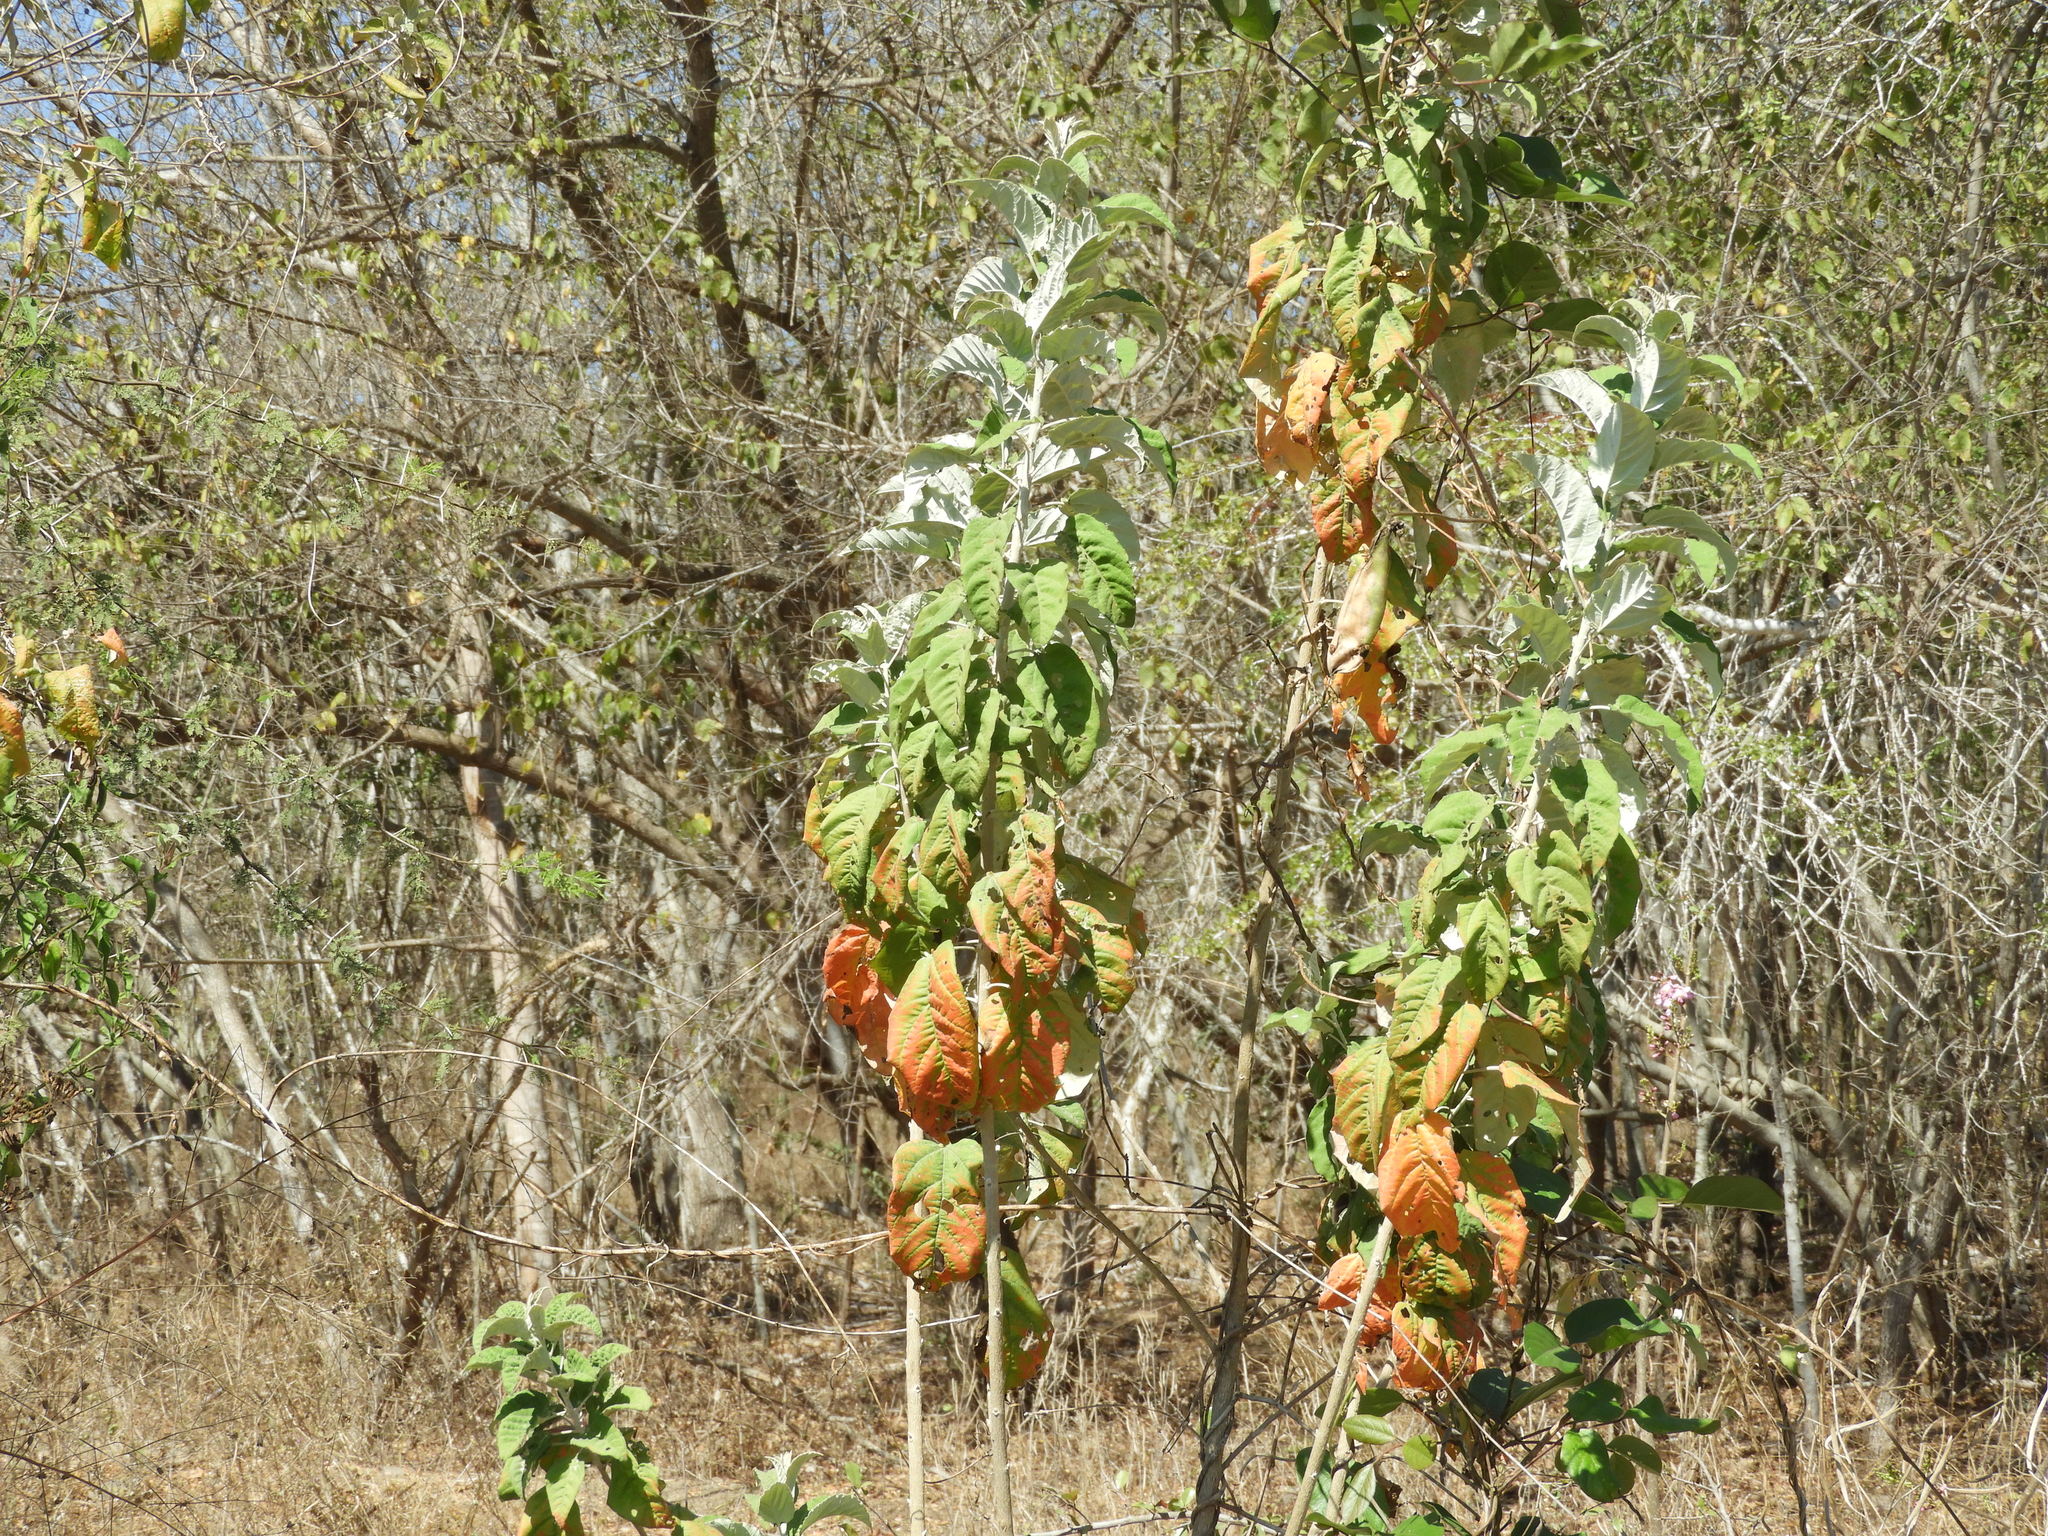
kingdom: Plantae
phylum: Tracheophyta
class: Magnoliopsida
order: Malpighiales
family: Euphorbiaceae
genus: Croton
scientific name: Croton sonorae
